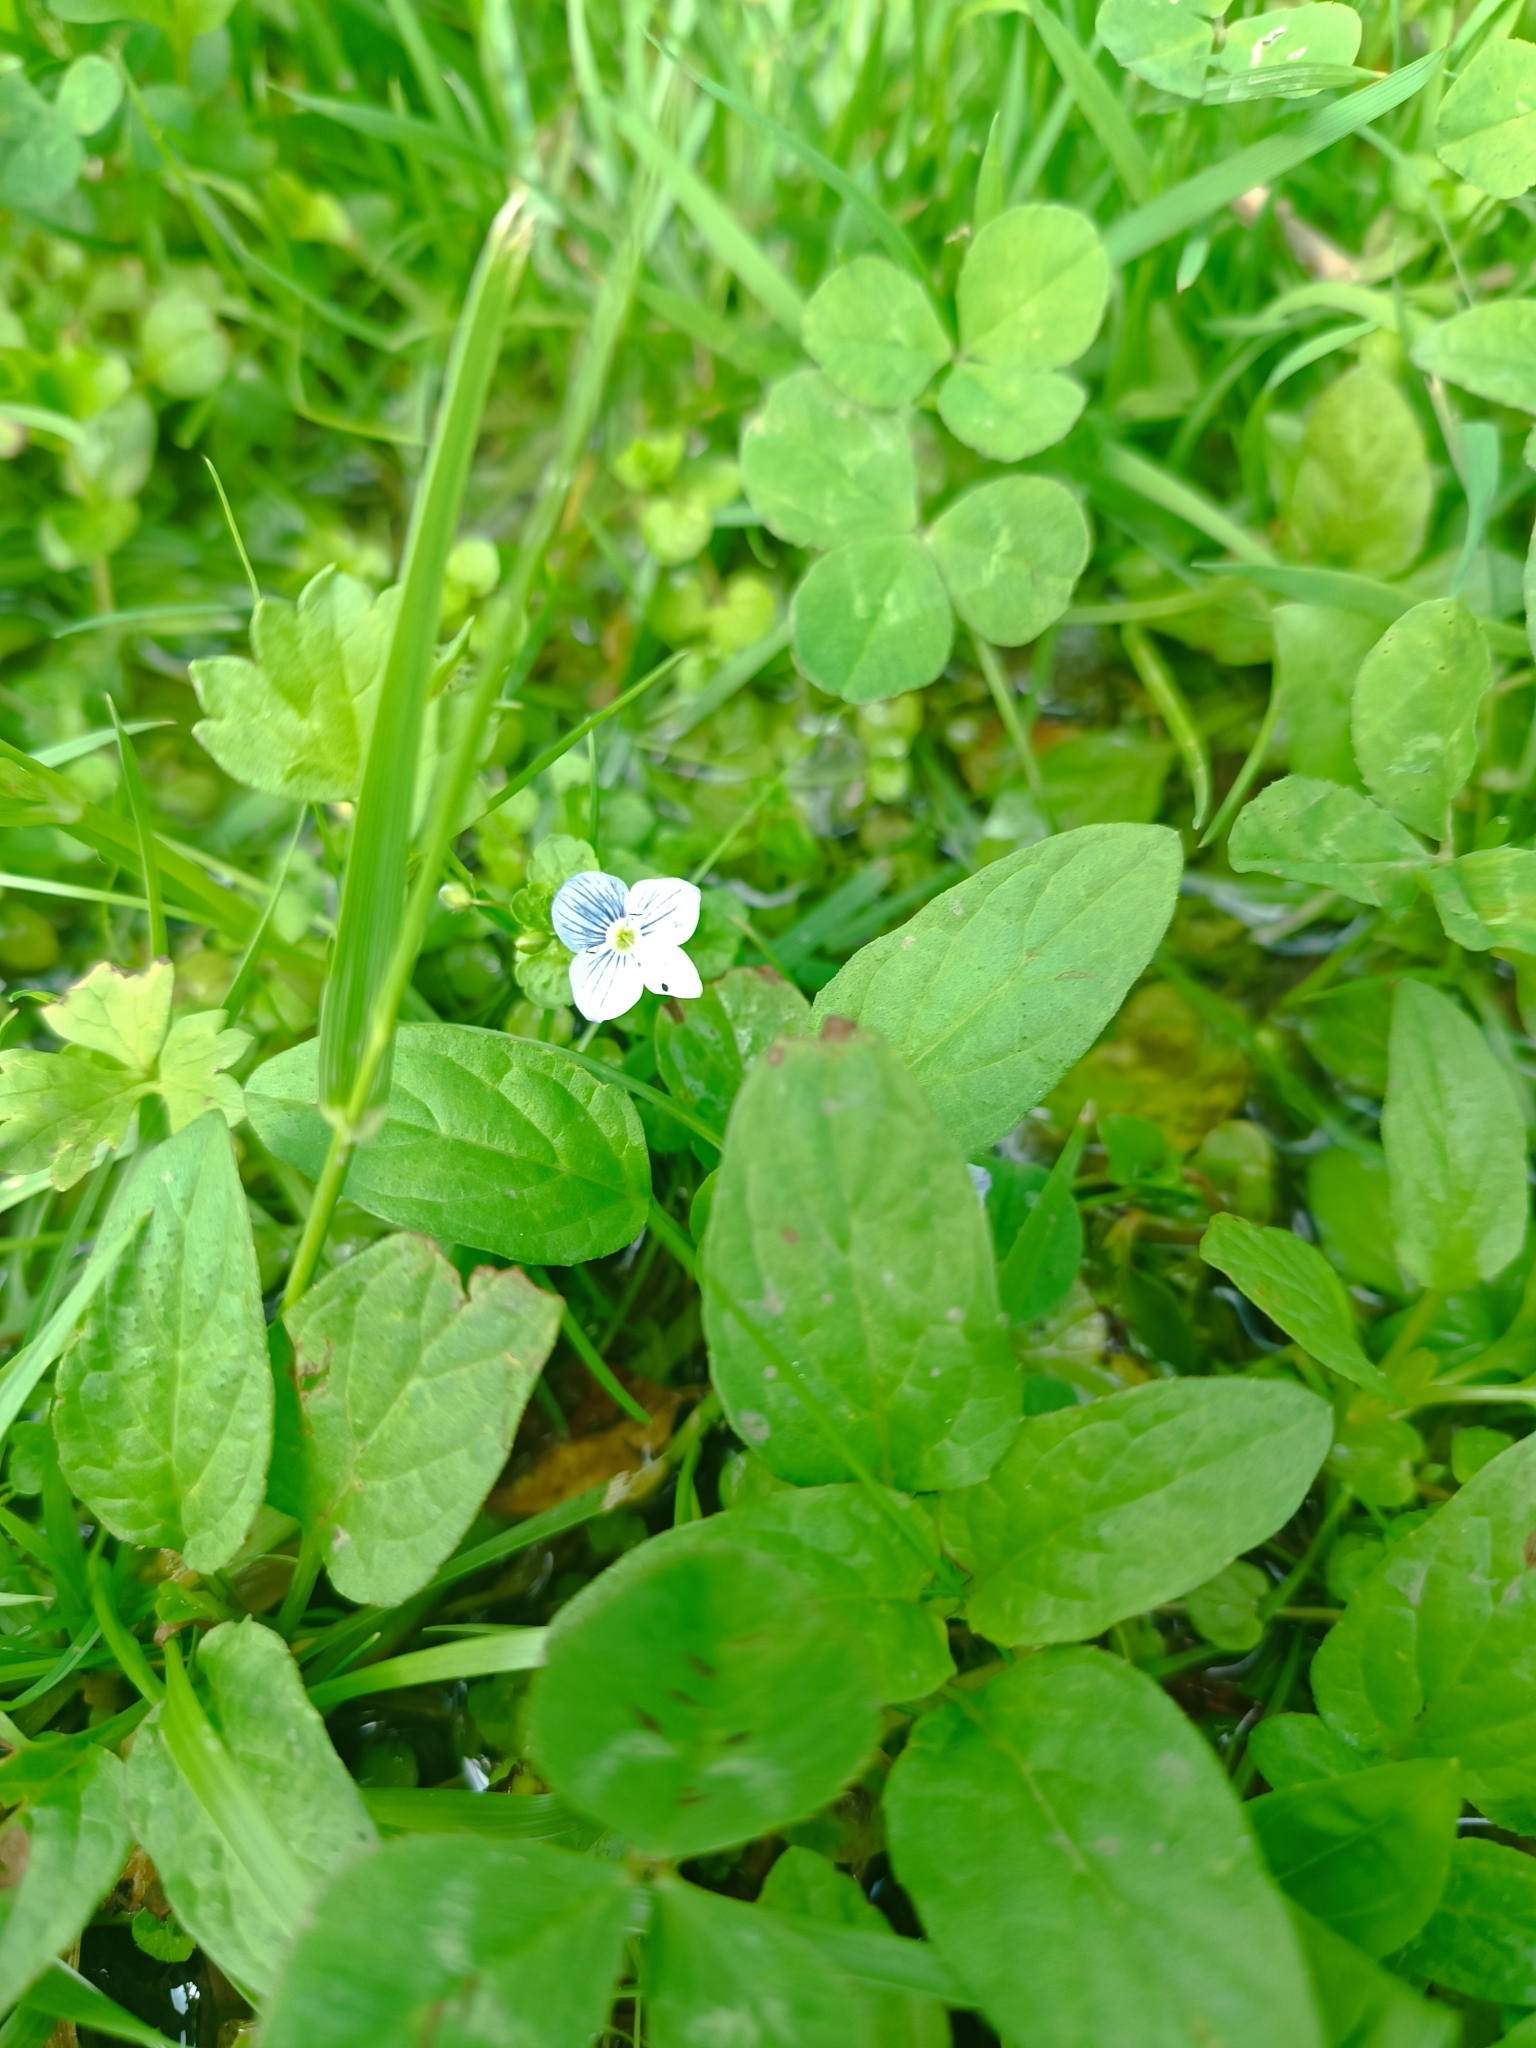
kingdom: Plantae
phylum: Tracheophyta
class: Magnoliopsida
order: Lamiales
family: Plantaginaceae
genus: Veronica
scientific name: Veronica filiformis
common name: Slender speedwell
